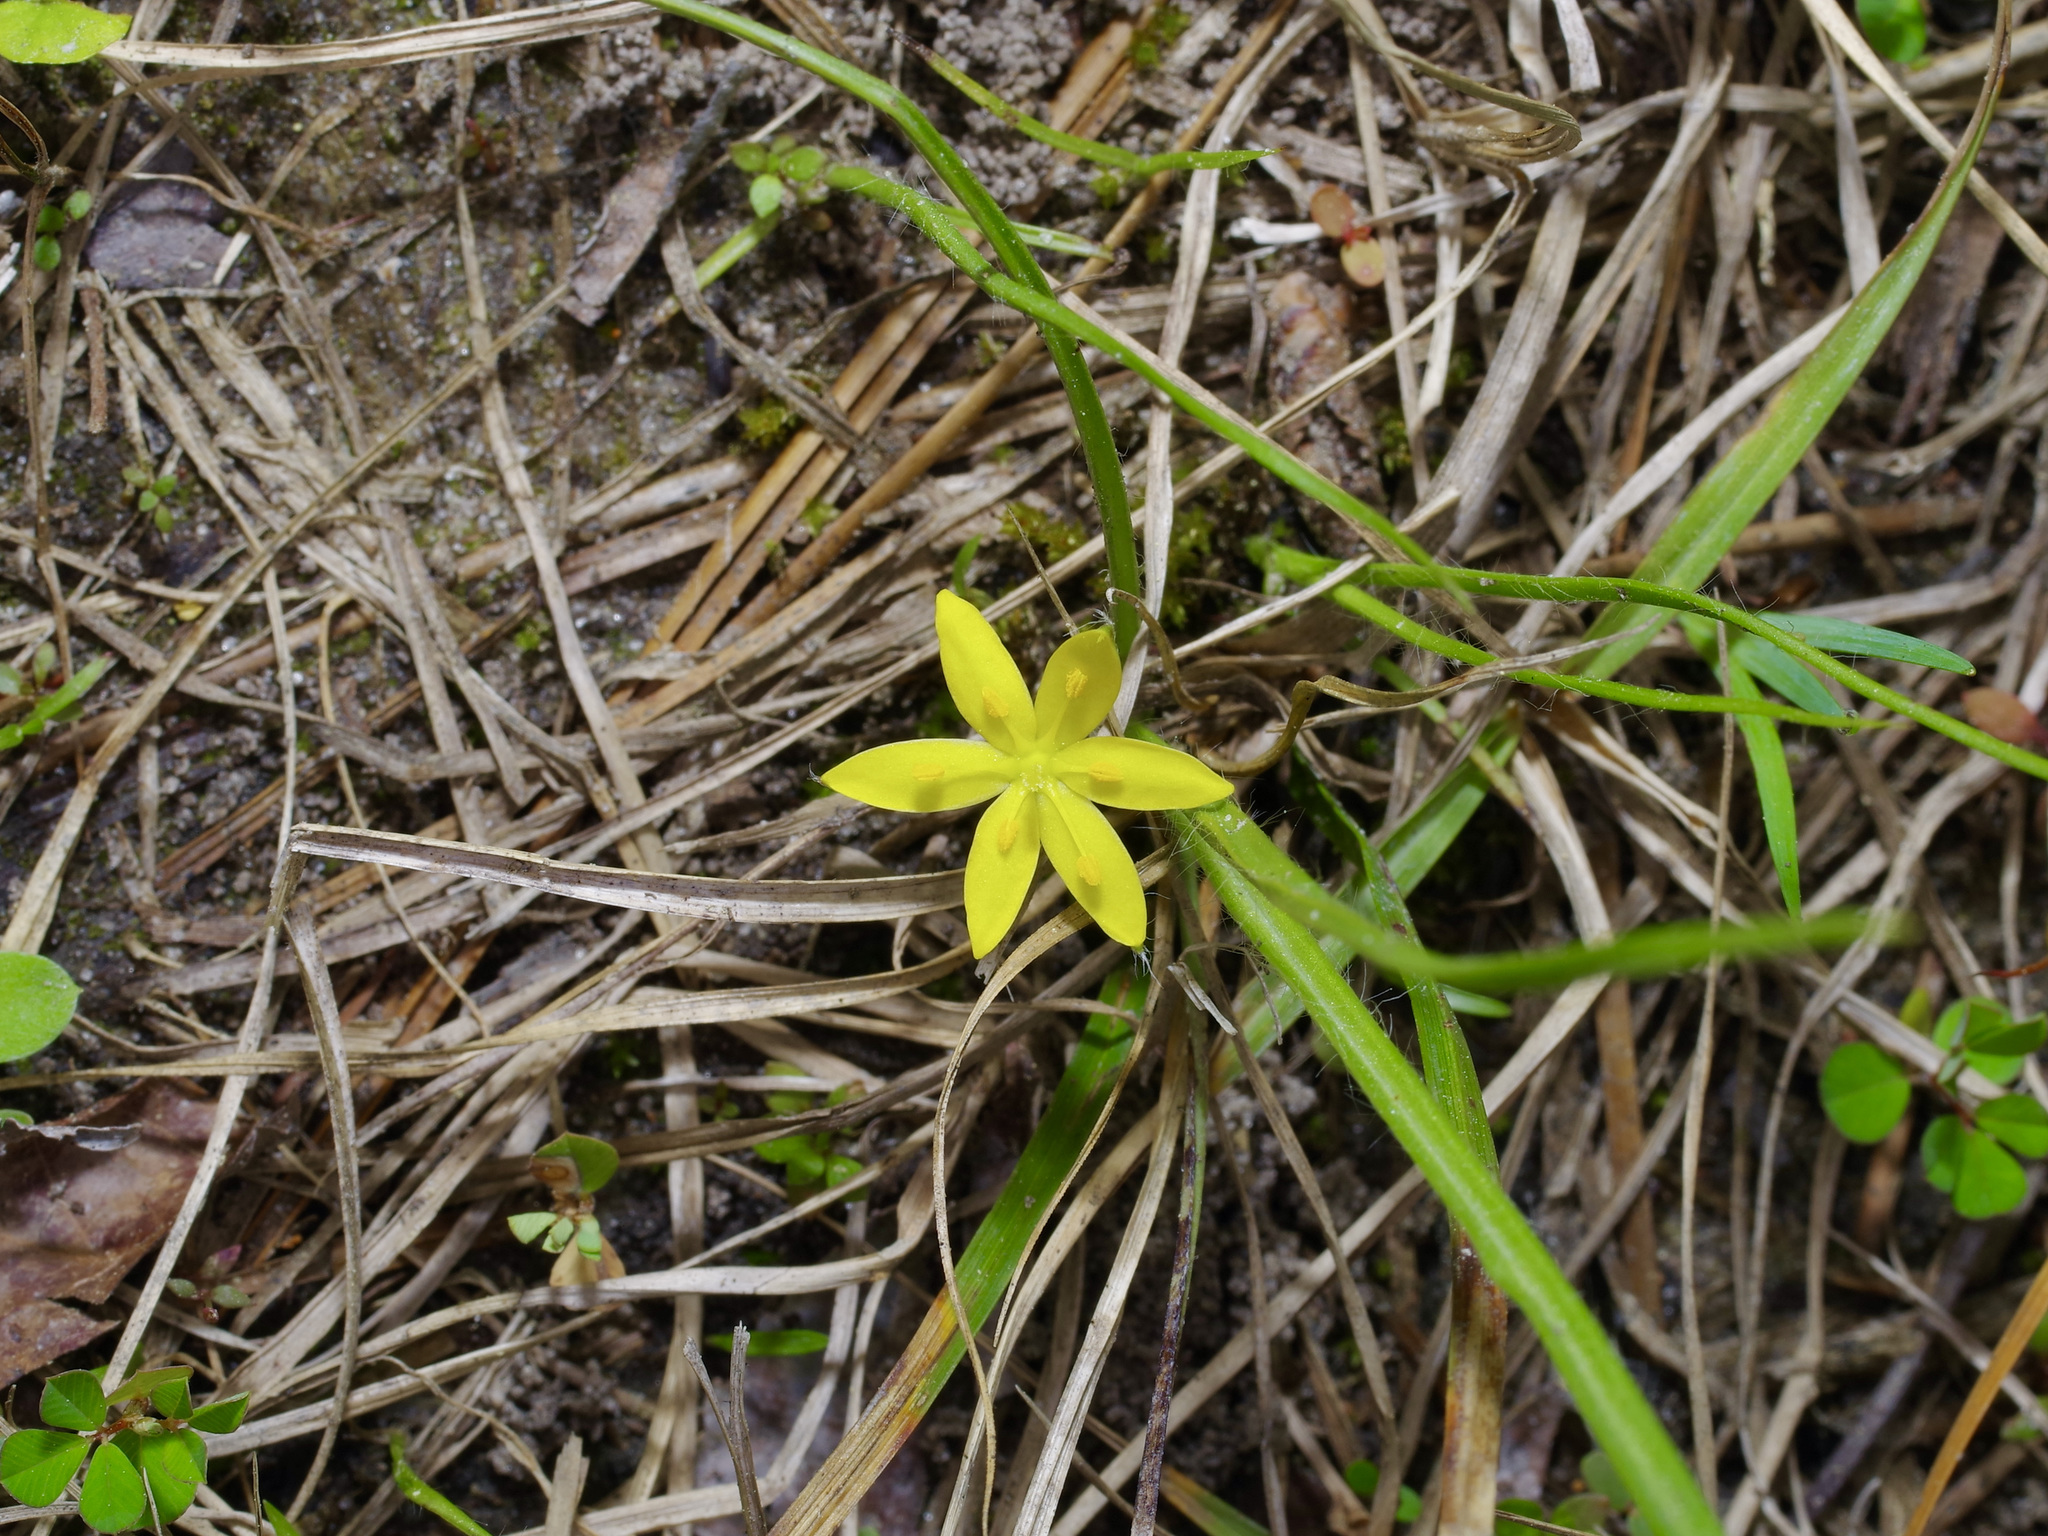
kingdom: Plantae
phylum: Tracheophyta
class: Liliopsida
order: Asparagales
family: Hypoxidaceae
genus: Hypoxis
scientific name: Hypoxis hirsuta
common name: Common goldstar
